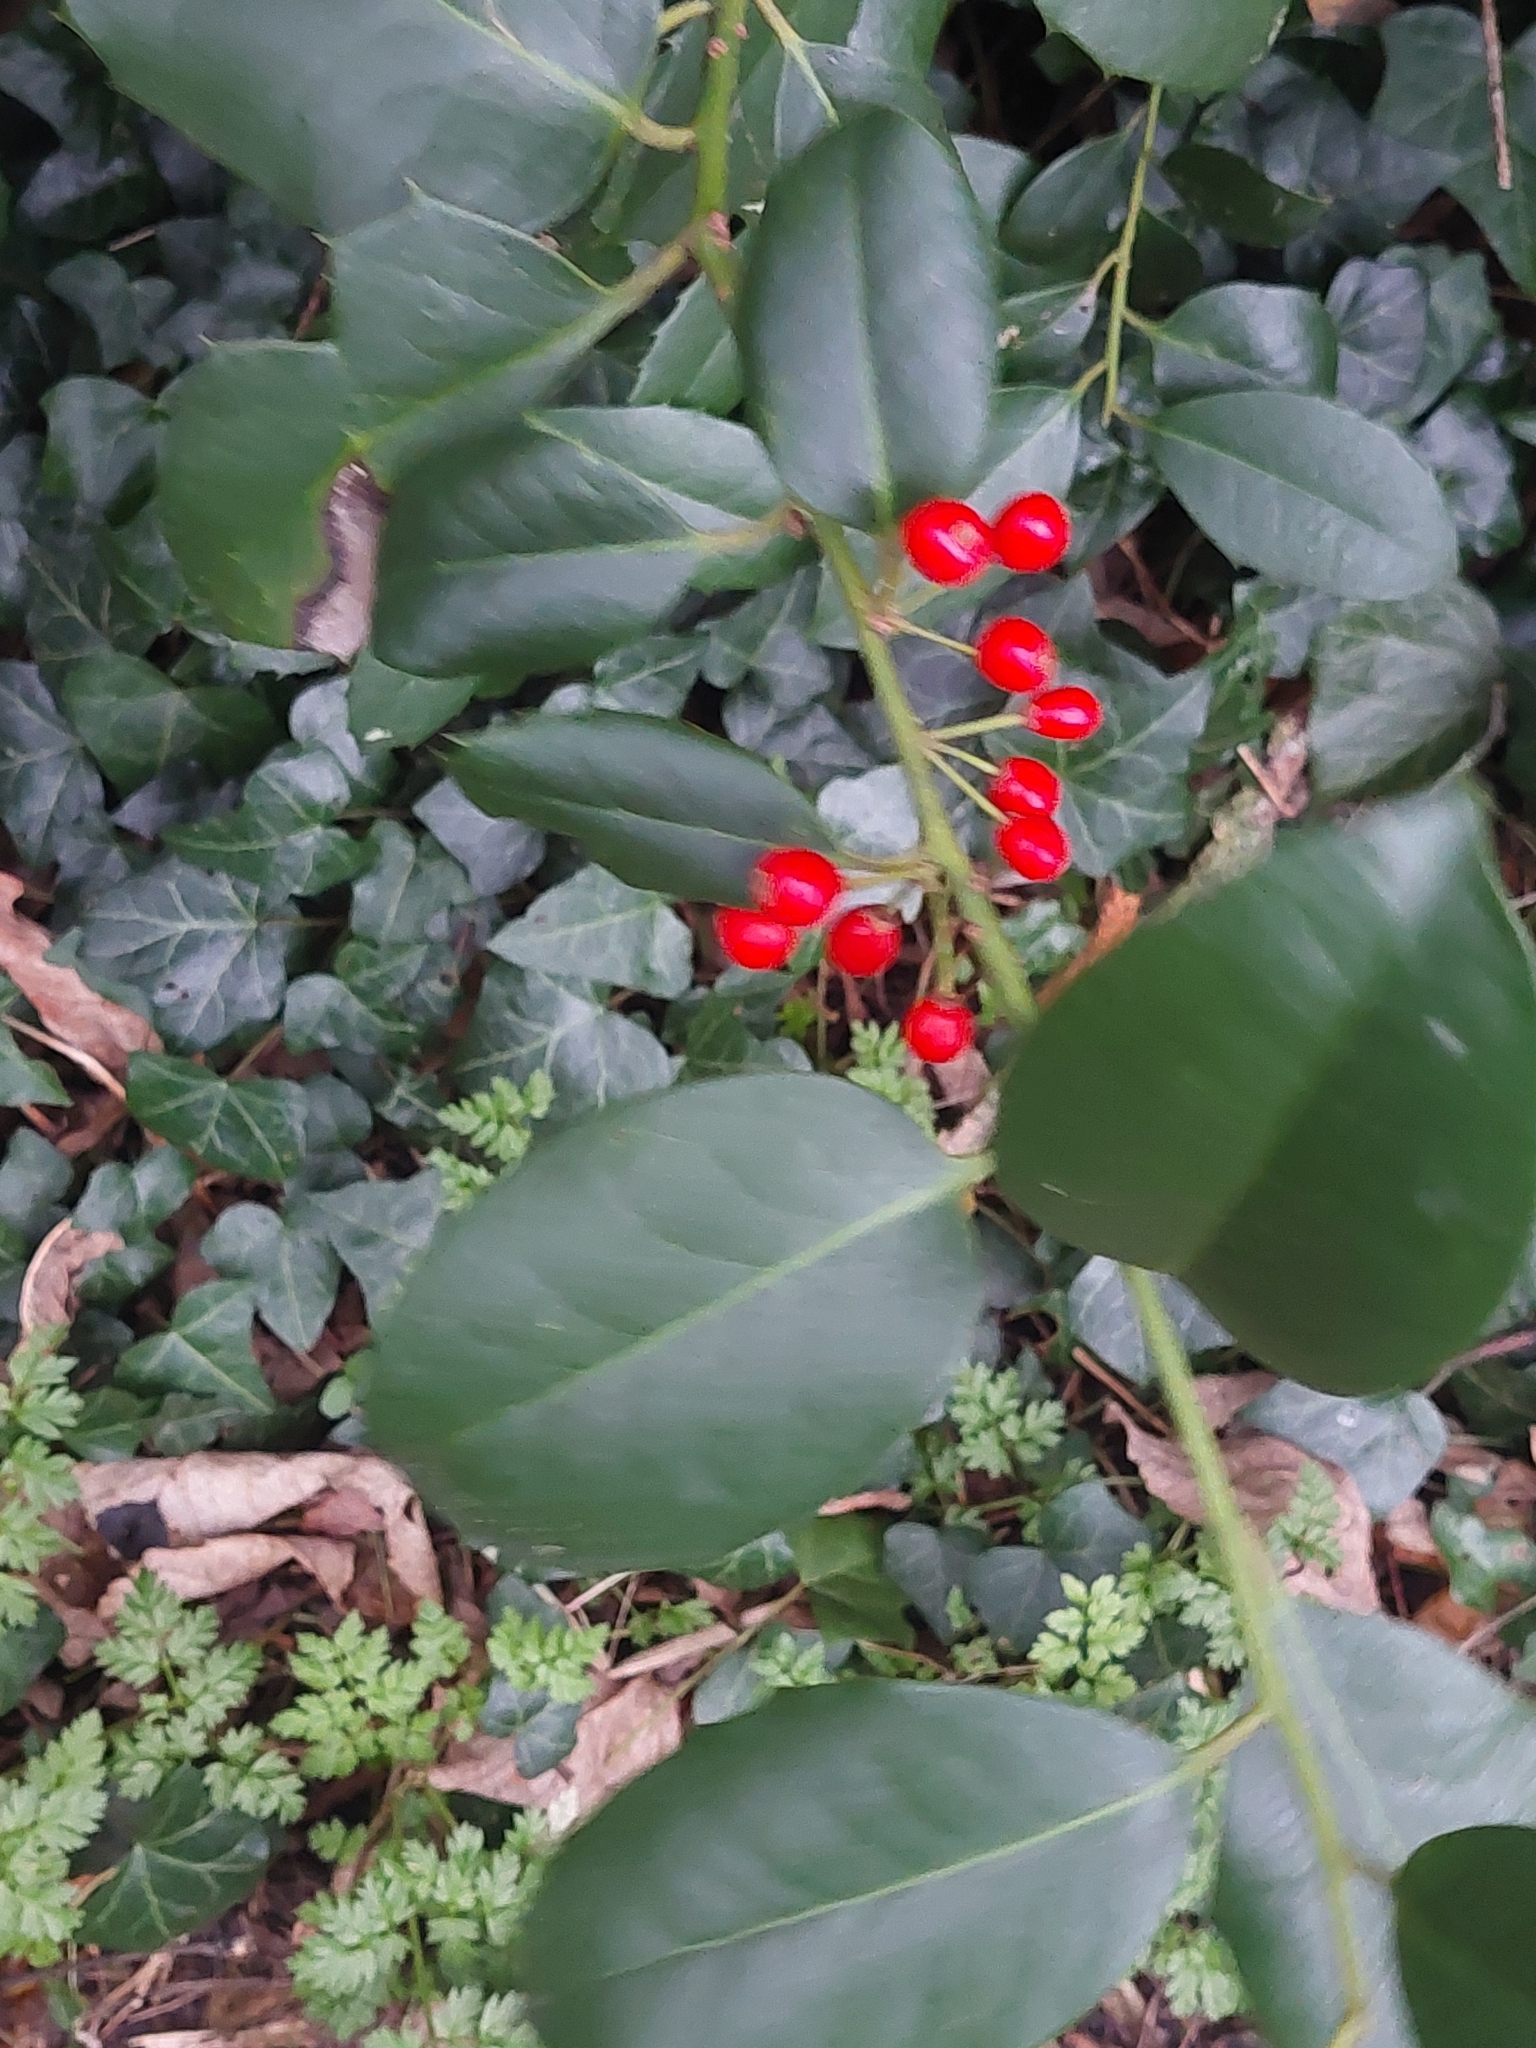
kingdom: Plantae
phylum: Tracheophyta
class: Magnoliopsida
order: Aquifoliales
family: Aquifoliaceae
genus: Ilex
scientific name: Ilex aquifolium
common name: English holly
